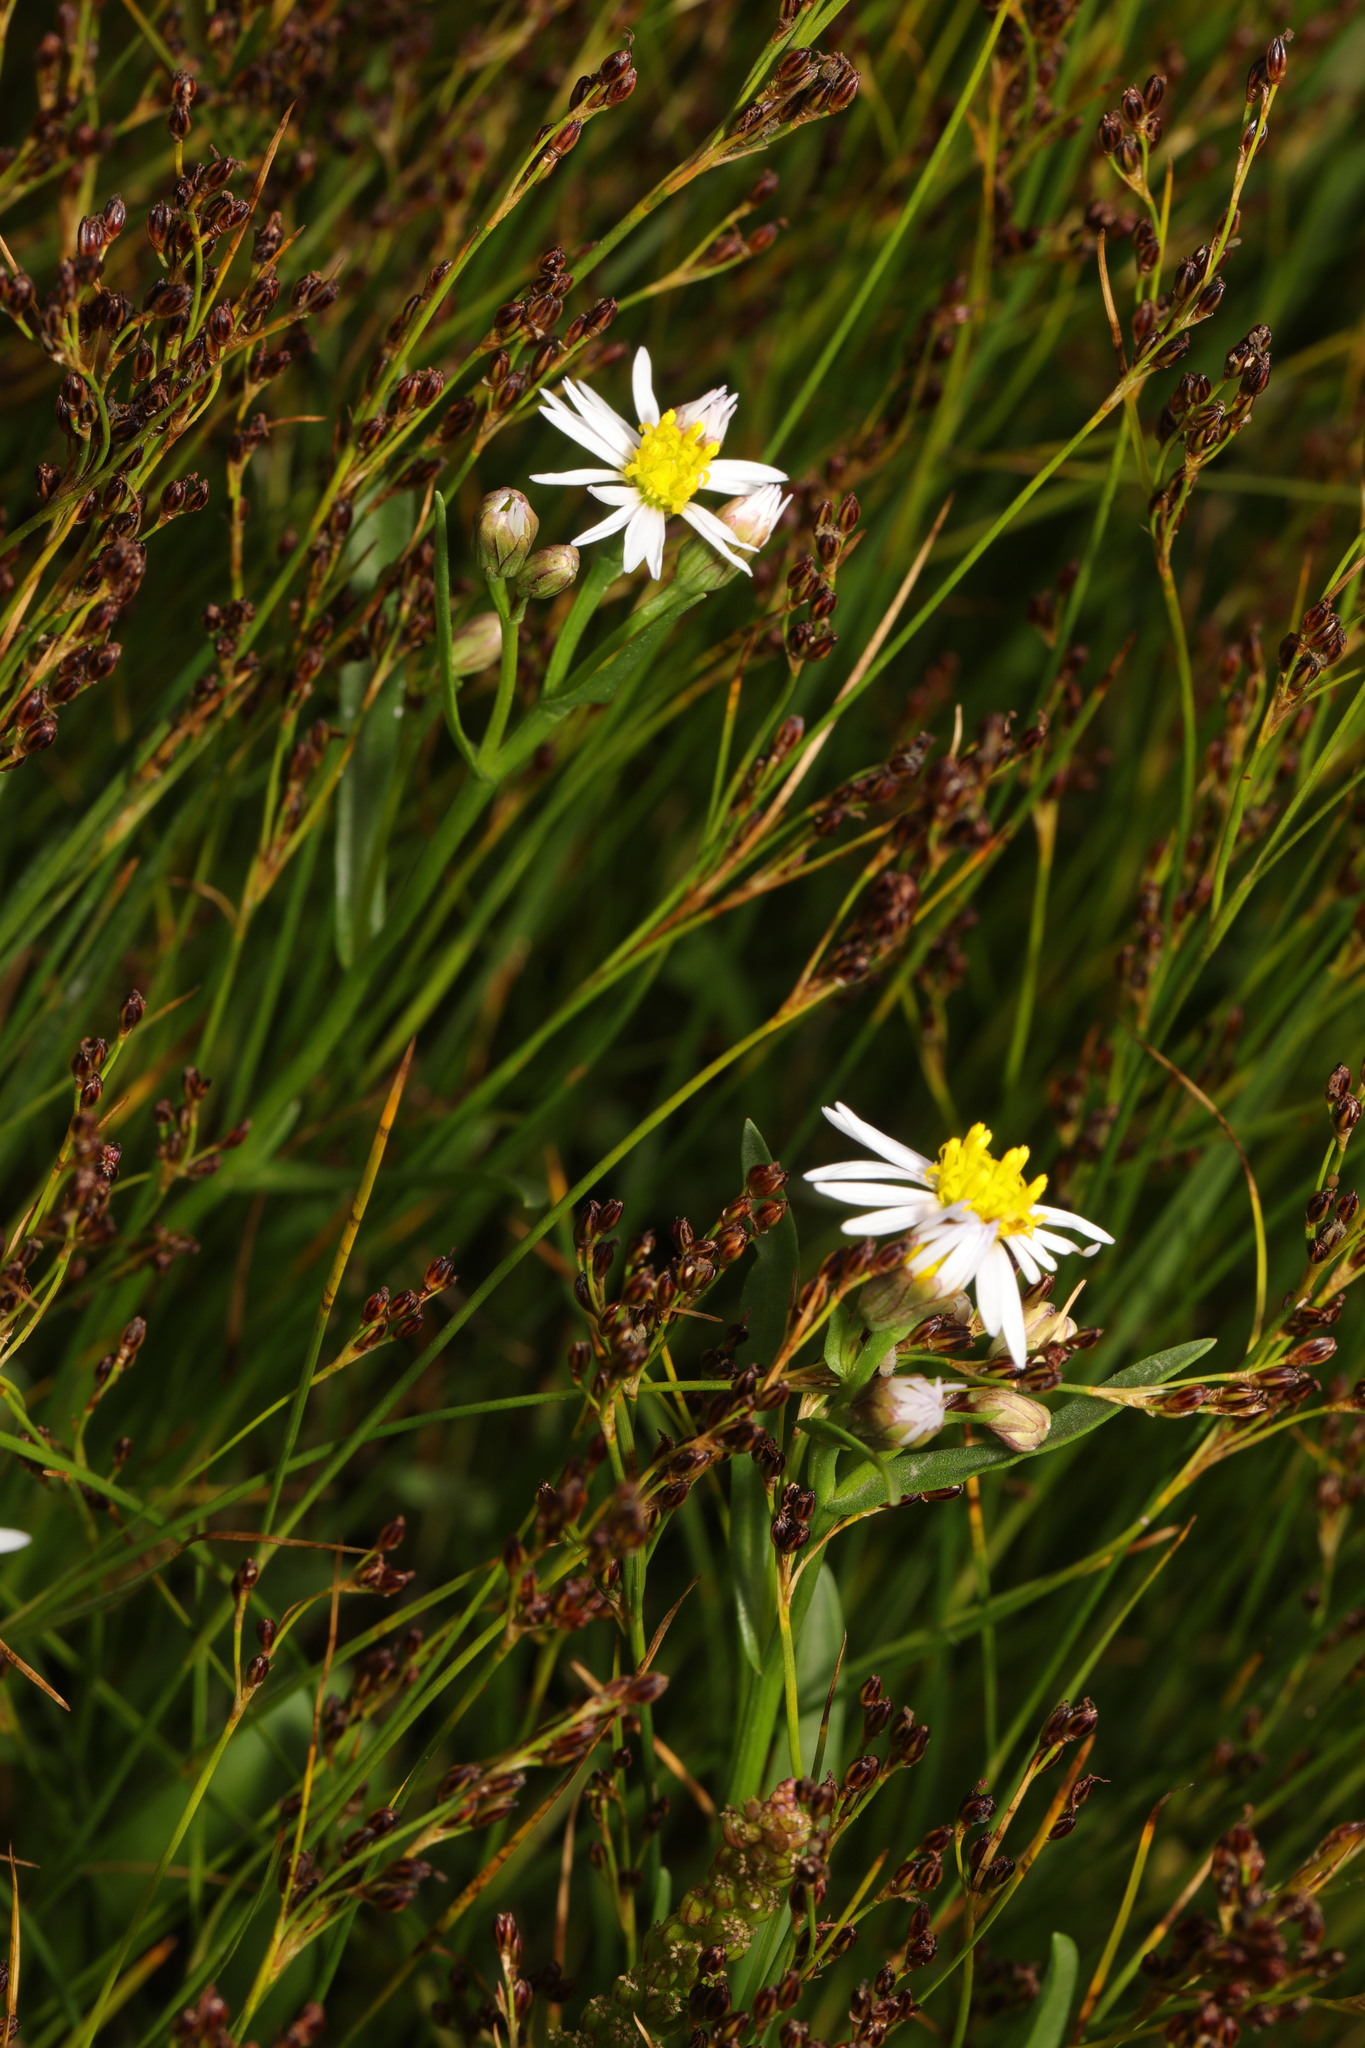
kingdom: Plantae
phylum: Tracheophyta
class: Magnoliopsida
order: Asterales
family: Asteraceae
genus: Tripolium
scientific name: Tripolium pannonicum
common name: Sea aster
